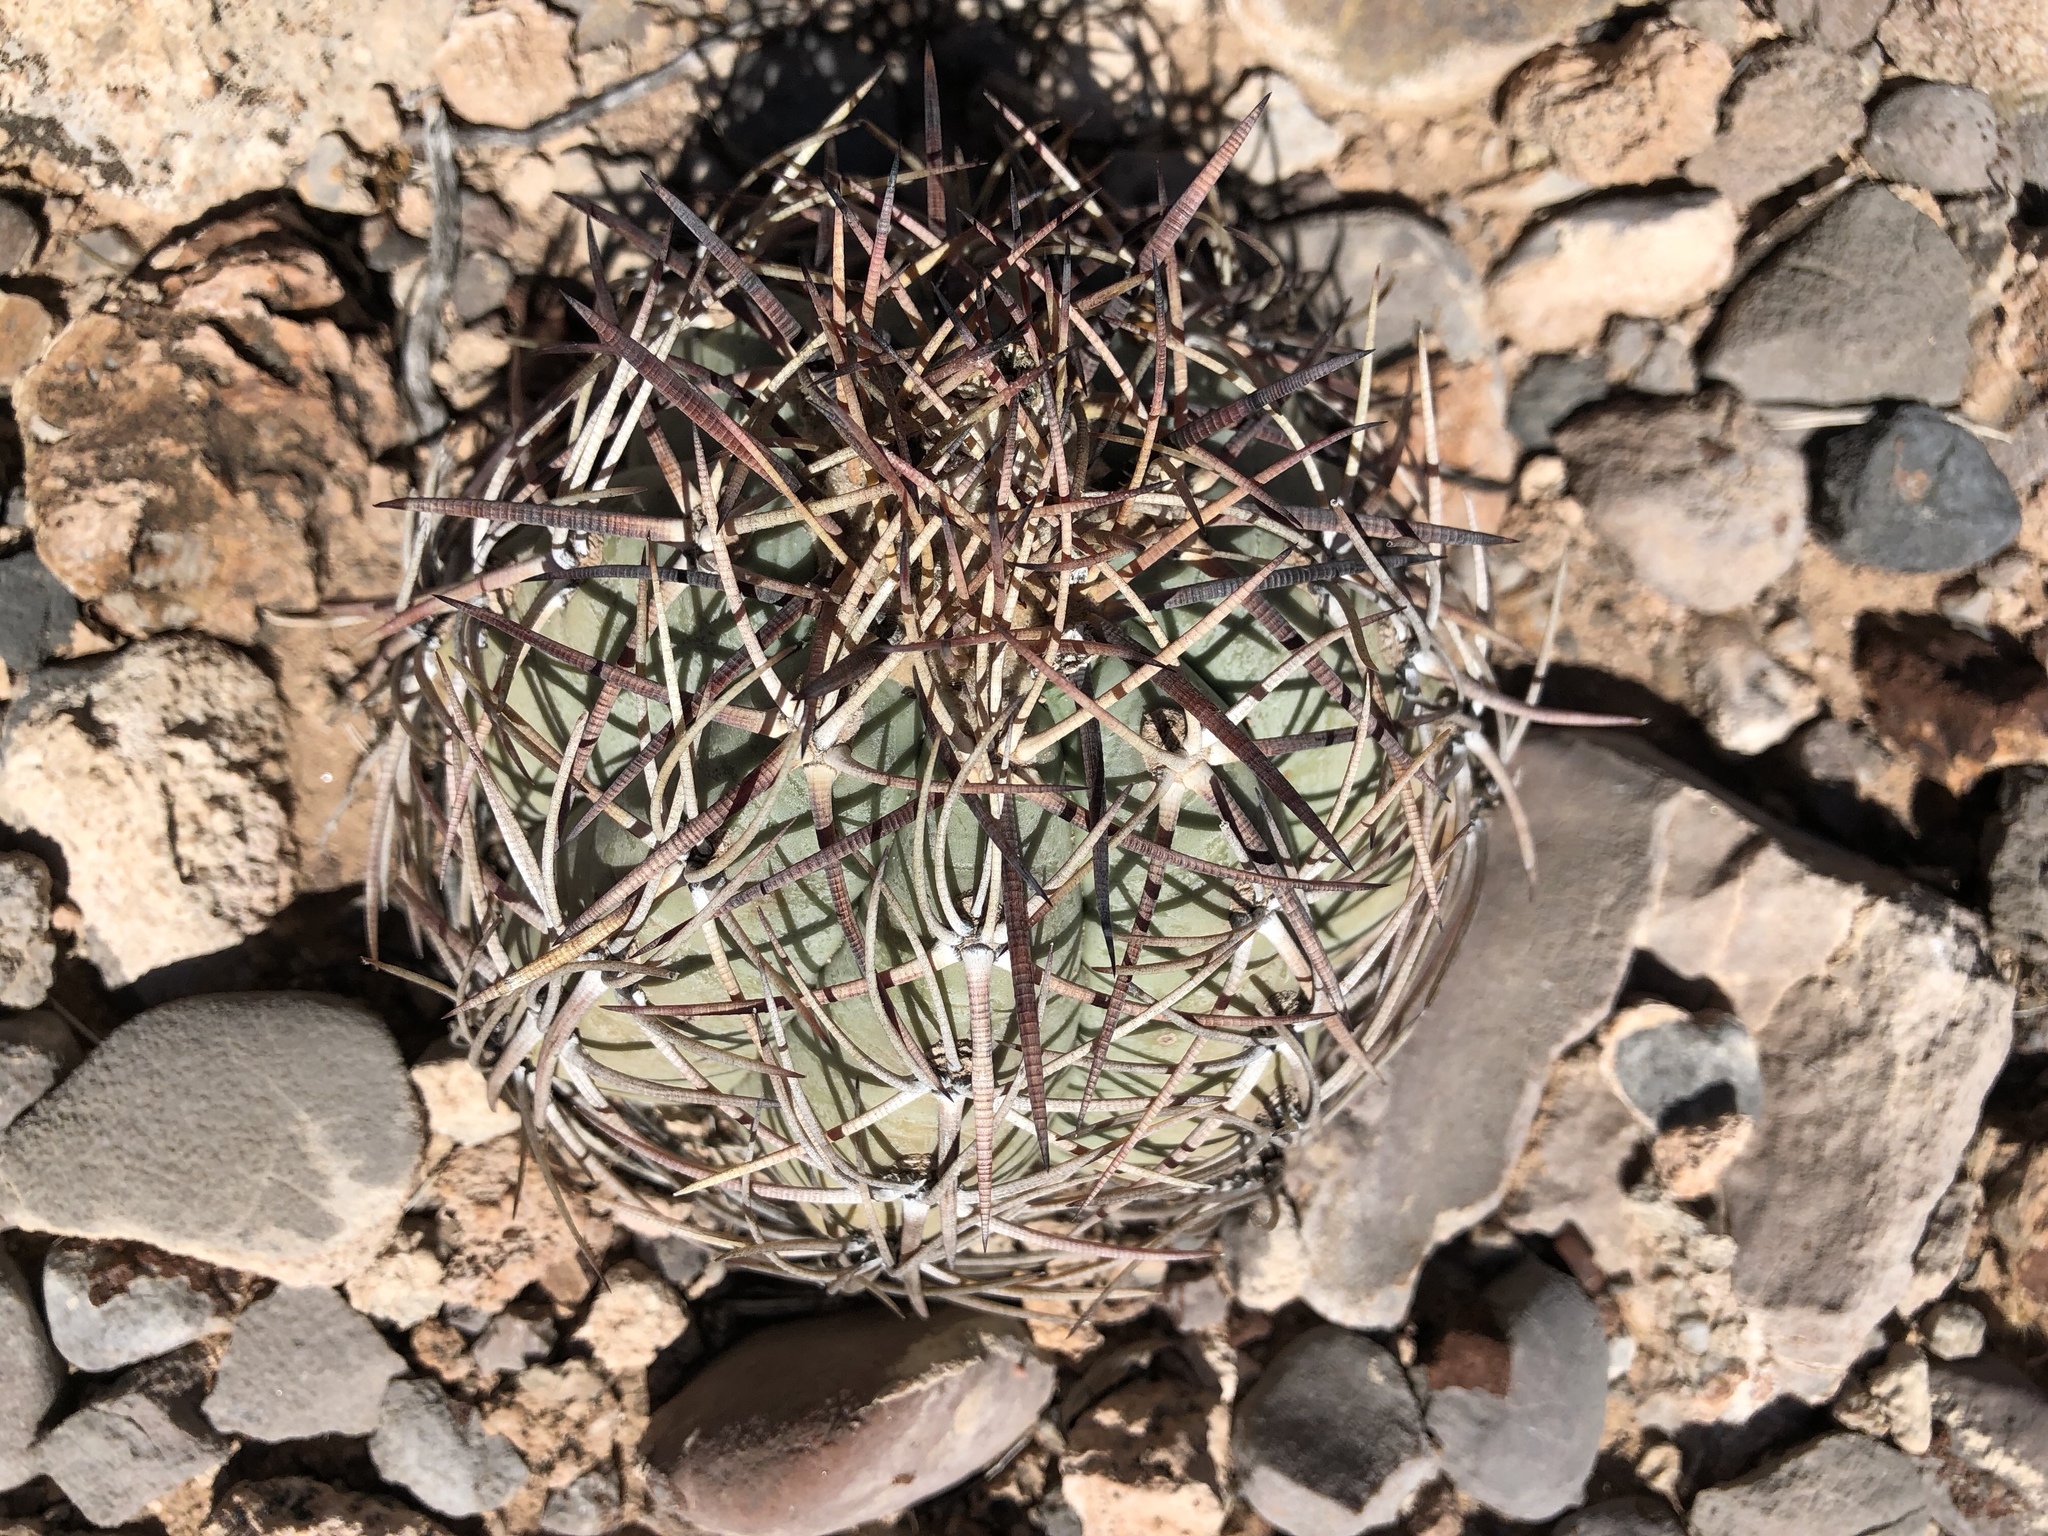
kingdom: Plantae
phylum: Tracheophyta
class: Magnoliopsida
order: Caryophyllales
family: Cactaceae
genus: Echinocactus
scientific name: Echinocactus horizonthalonius
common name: Devilshead
